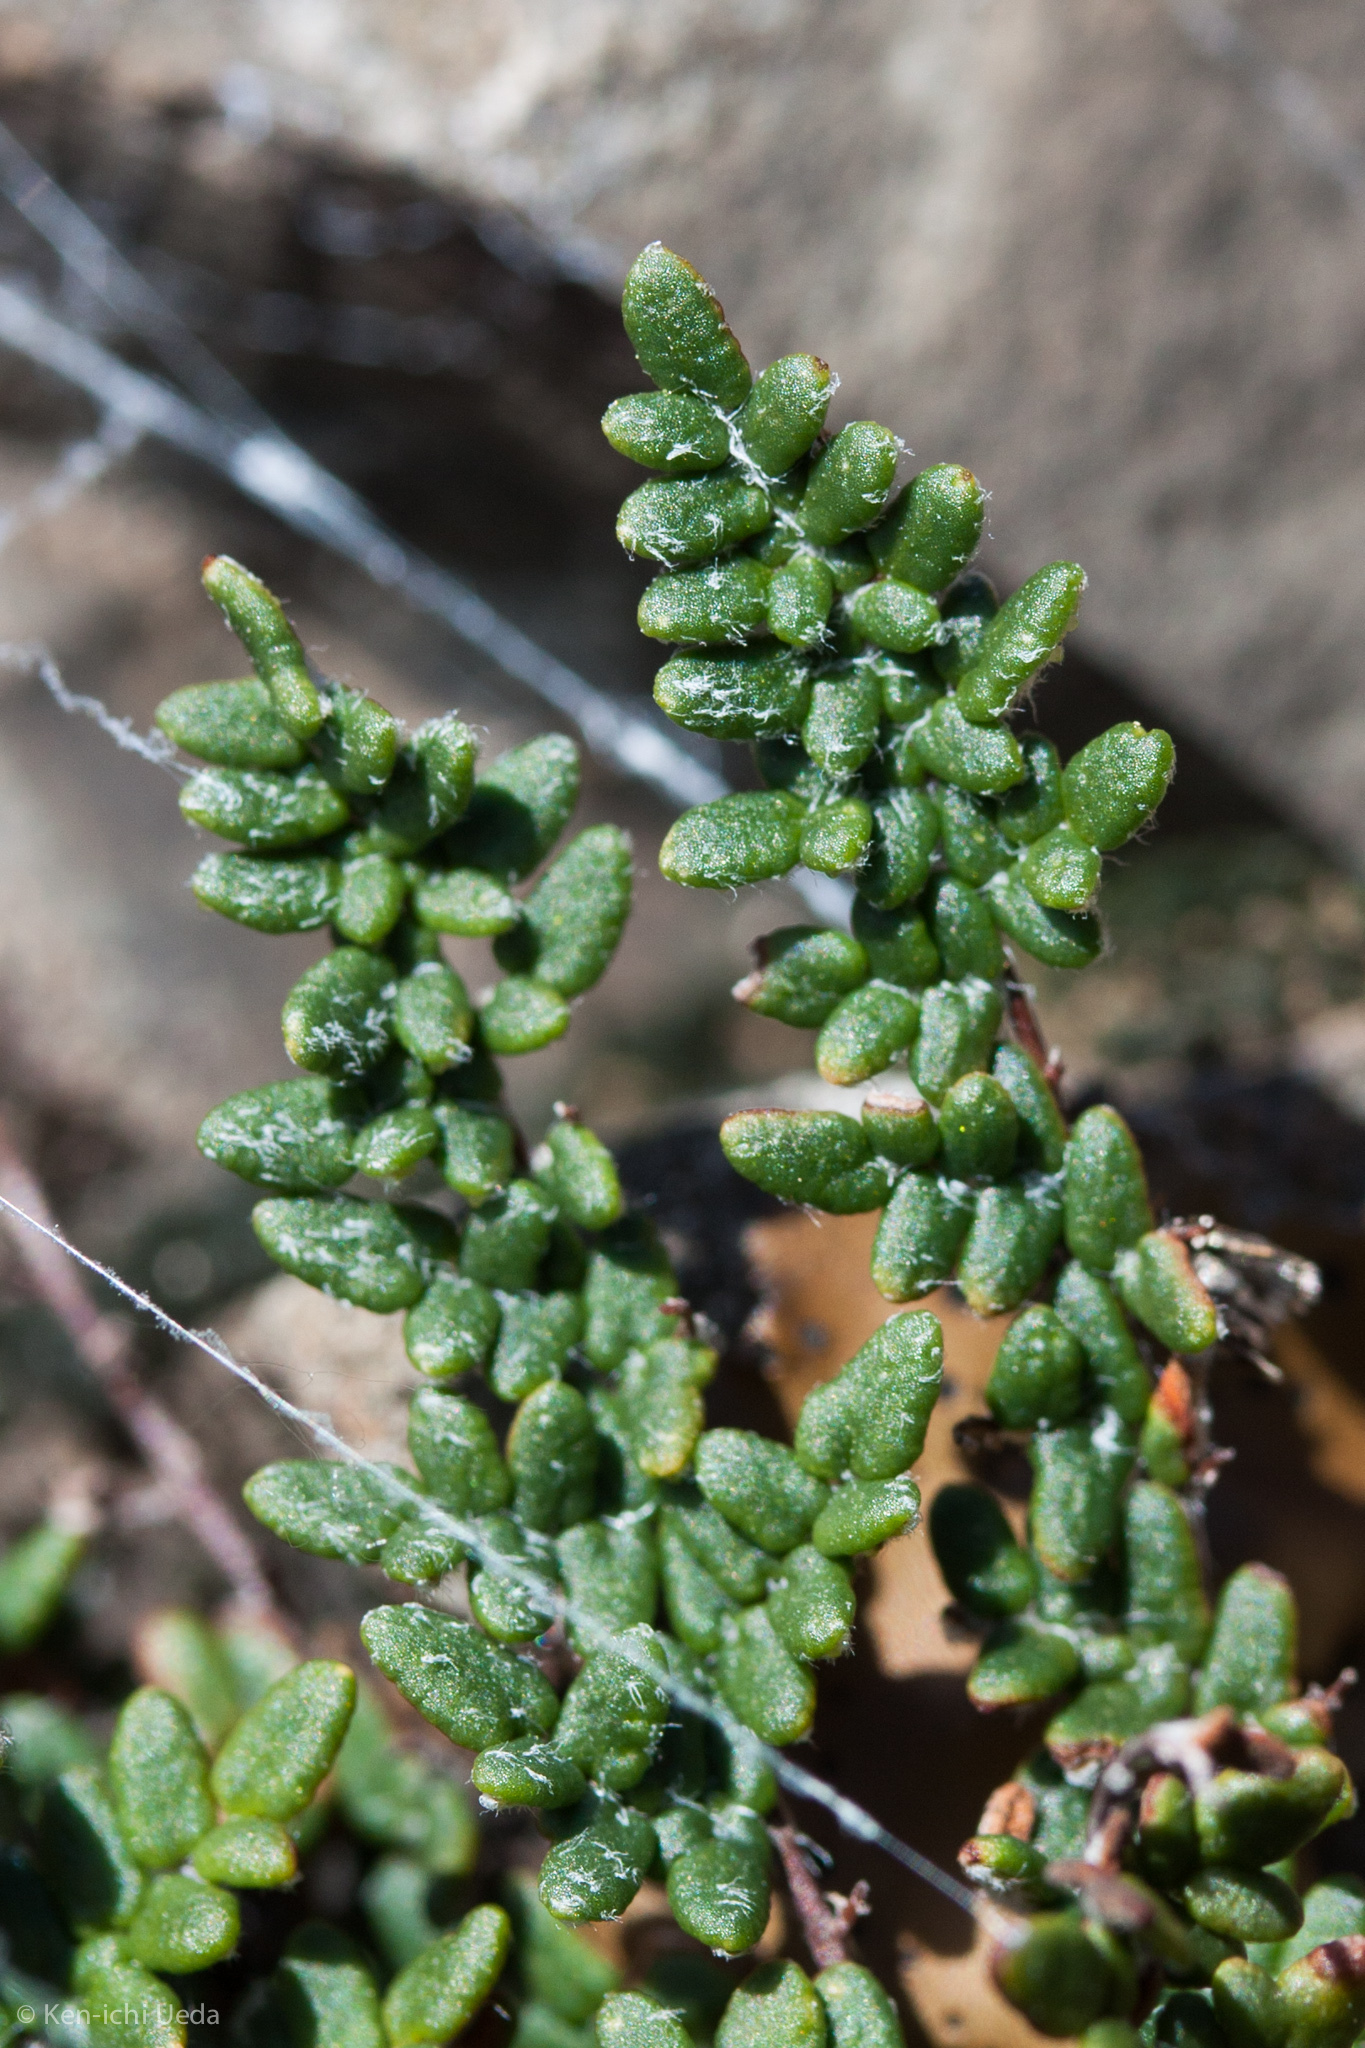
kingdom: Plantae
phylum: Tracheophyta
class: Polypodiopsida
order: Polypodiales
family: Pteridaceae
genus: Myriopteris
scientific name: Myriopteris gracillima
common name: Lace fern
